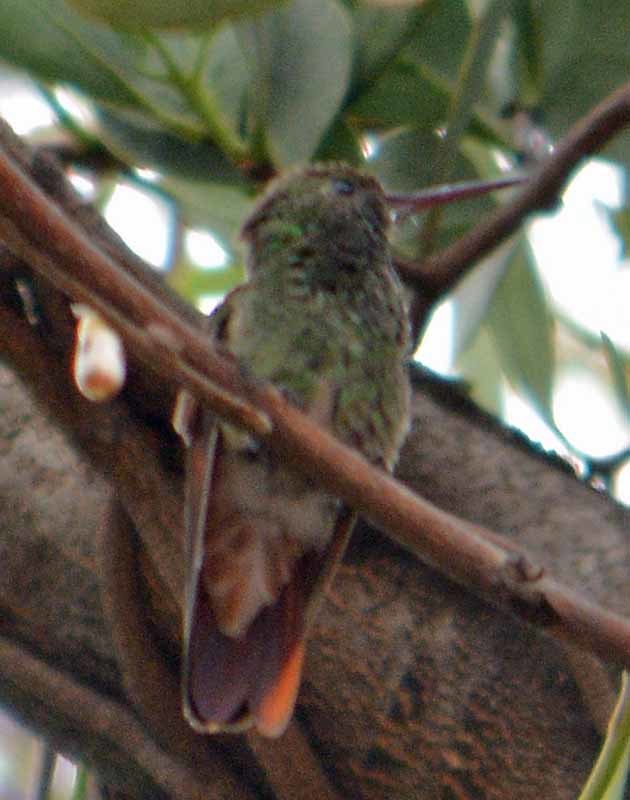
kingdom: Animalia
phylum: Chordata
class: Aves
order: Apodiformes
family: Trochilidae
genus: Saucerottia
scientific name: Saucerottia beryllina
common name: Berylline hummingbird
